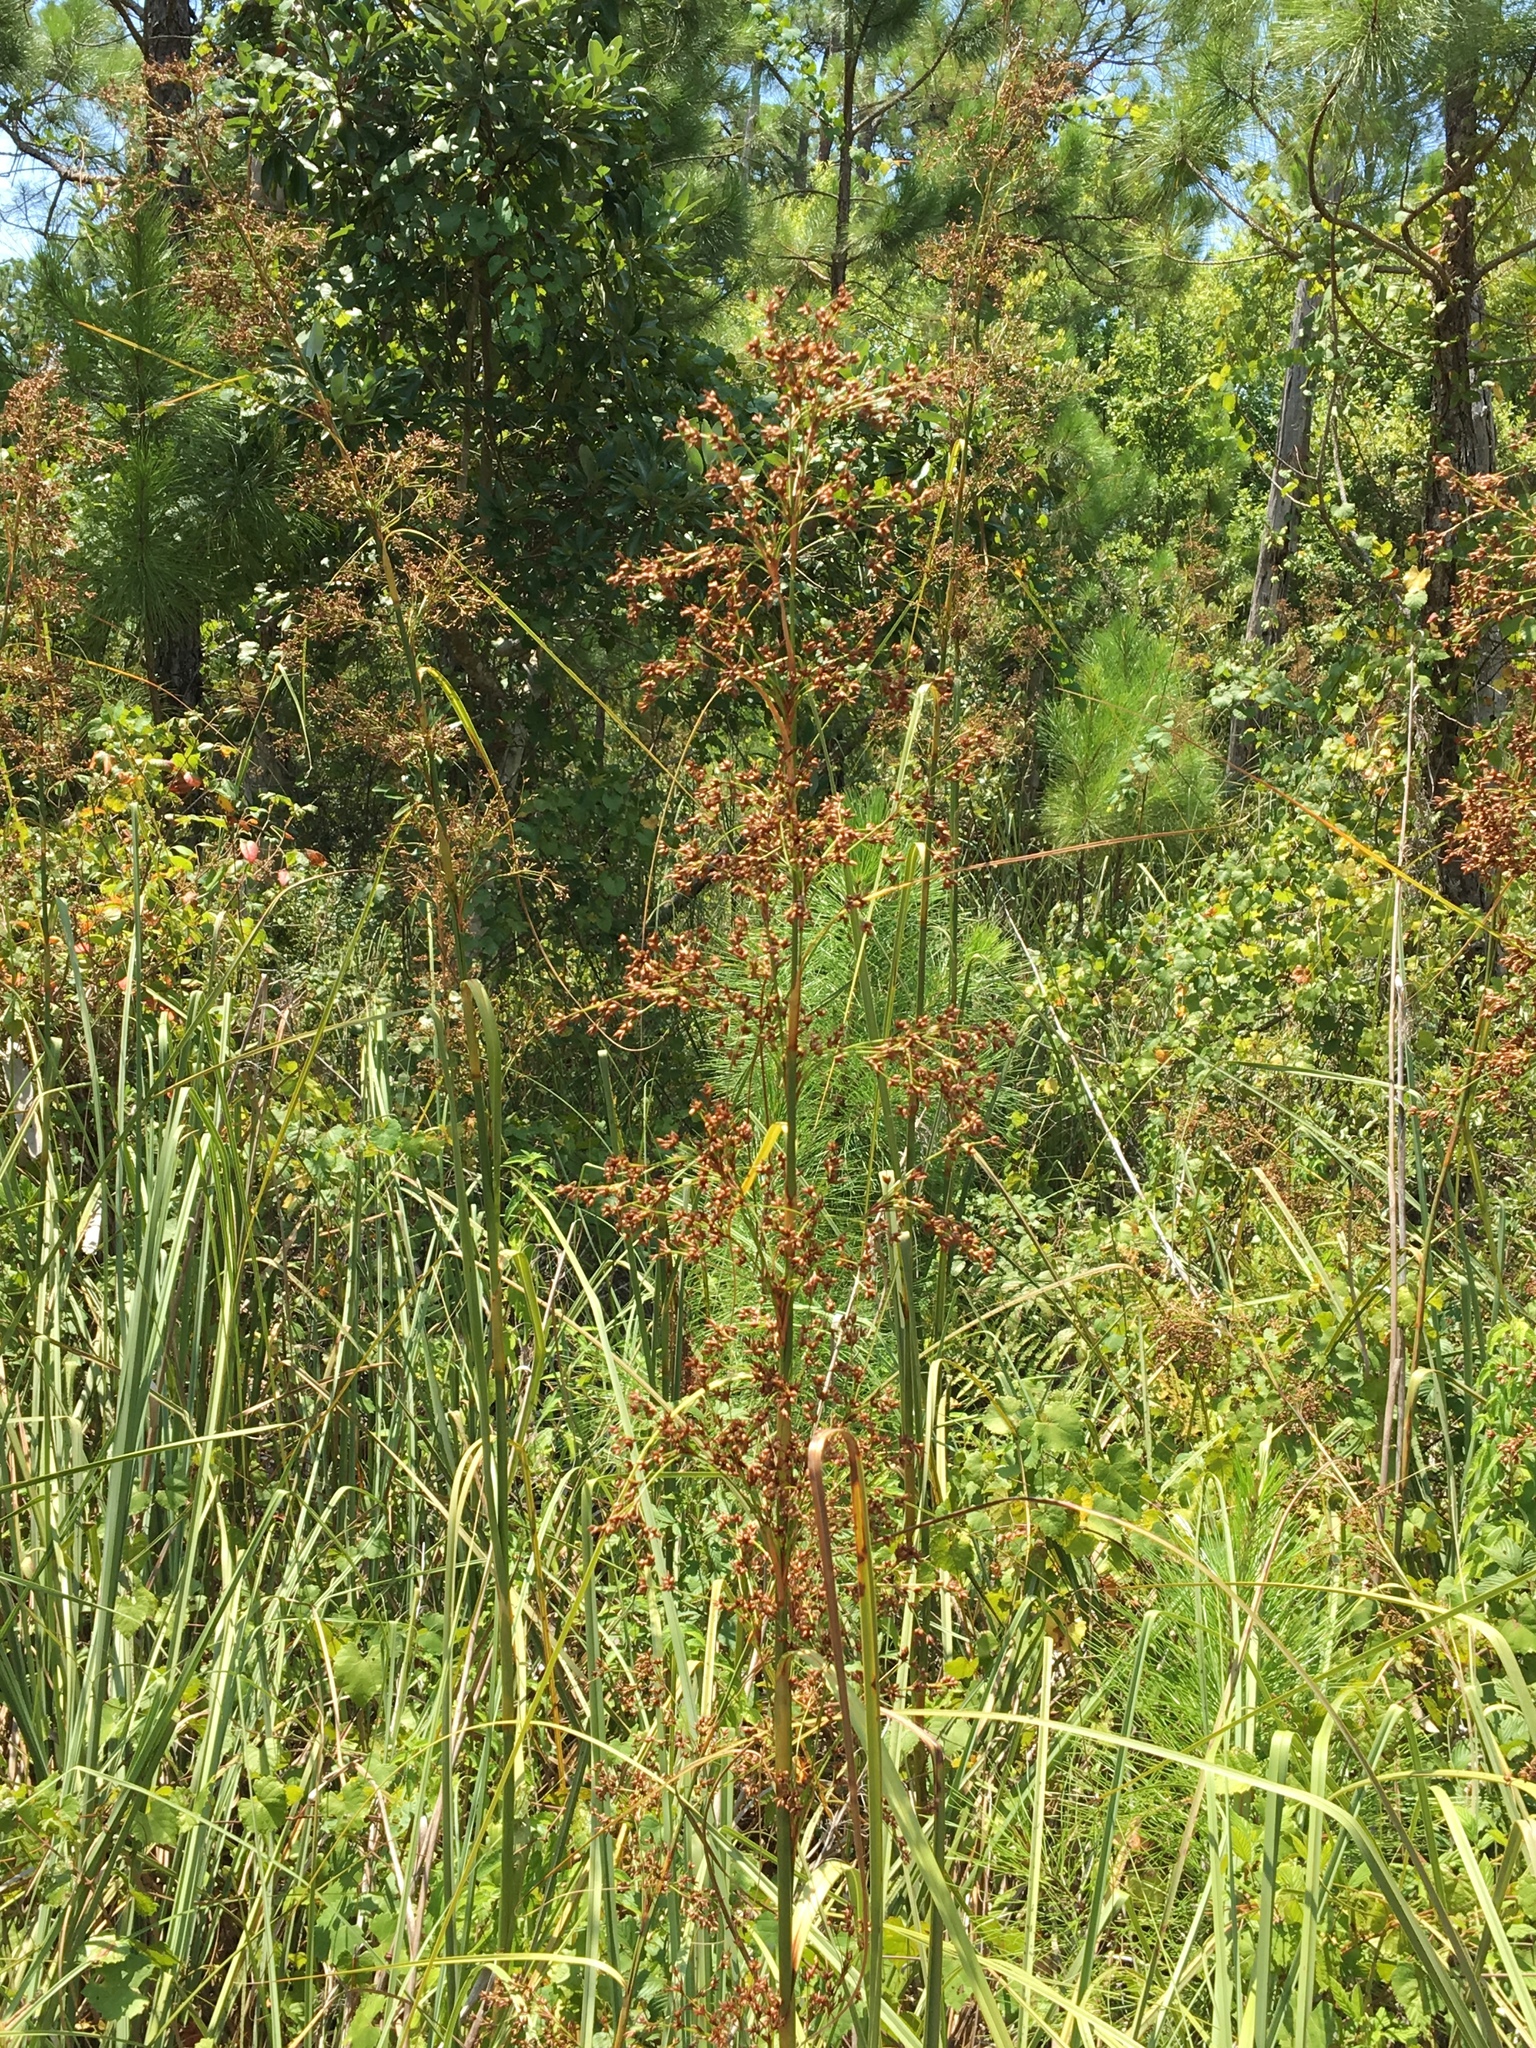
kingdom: Plantae
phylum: Tracheophyta
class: Liliopsida
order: Poales
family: Cyperaceae
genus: Cladium
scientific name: Cladium mariscus
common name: Great fen-sedge
